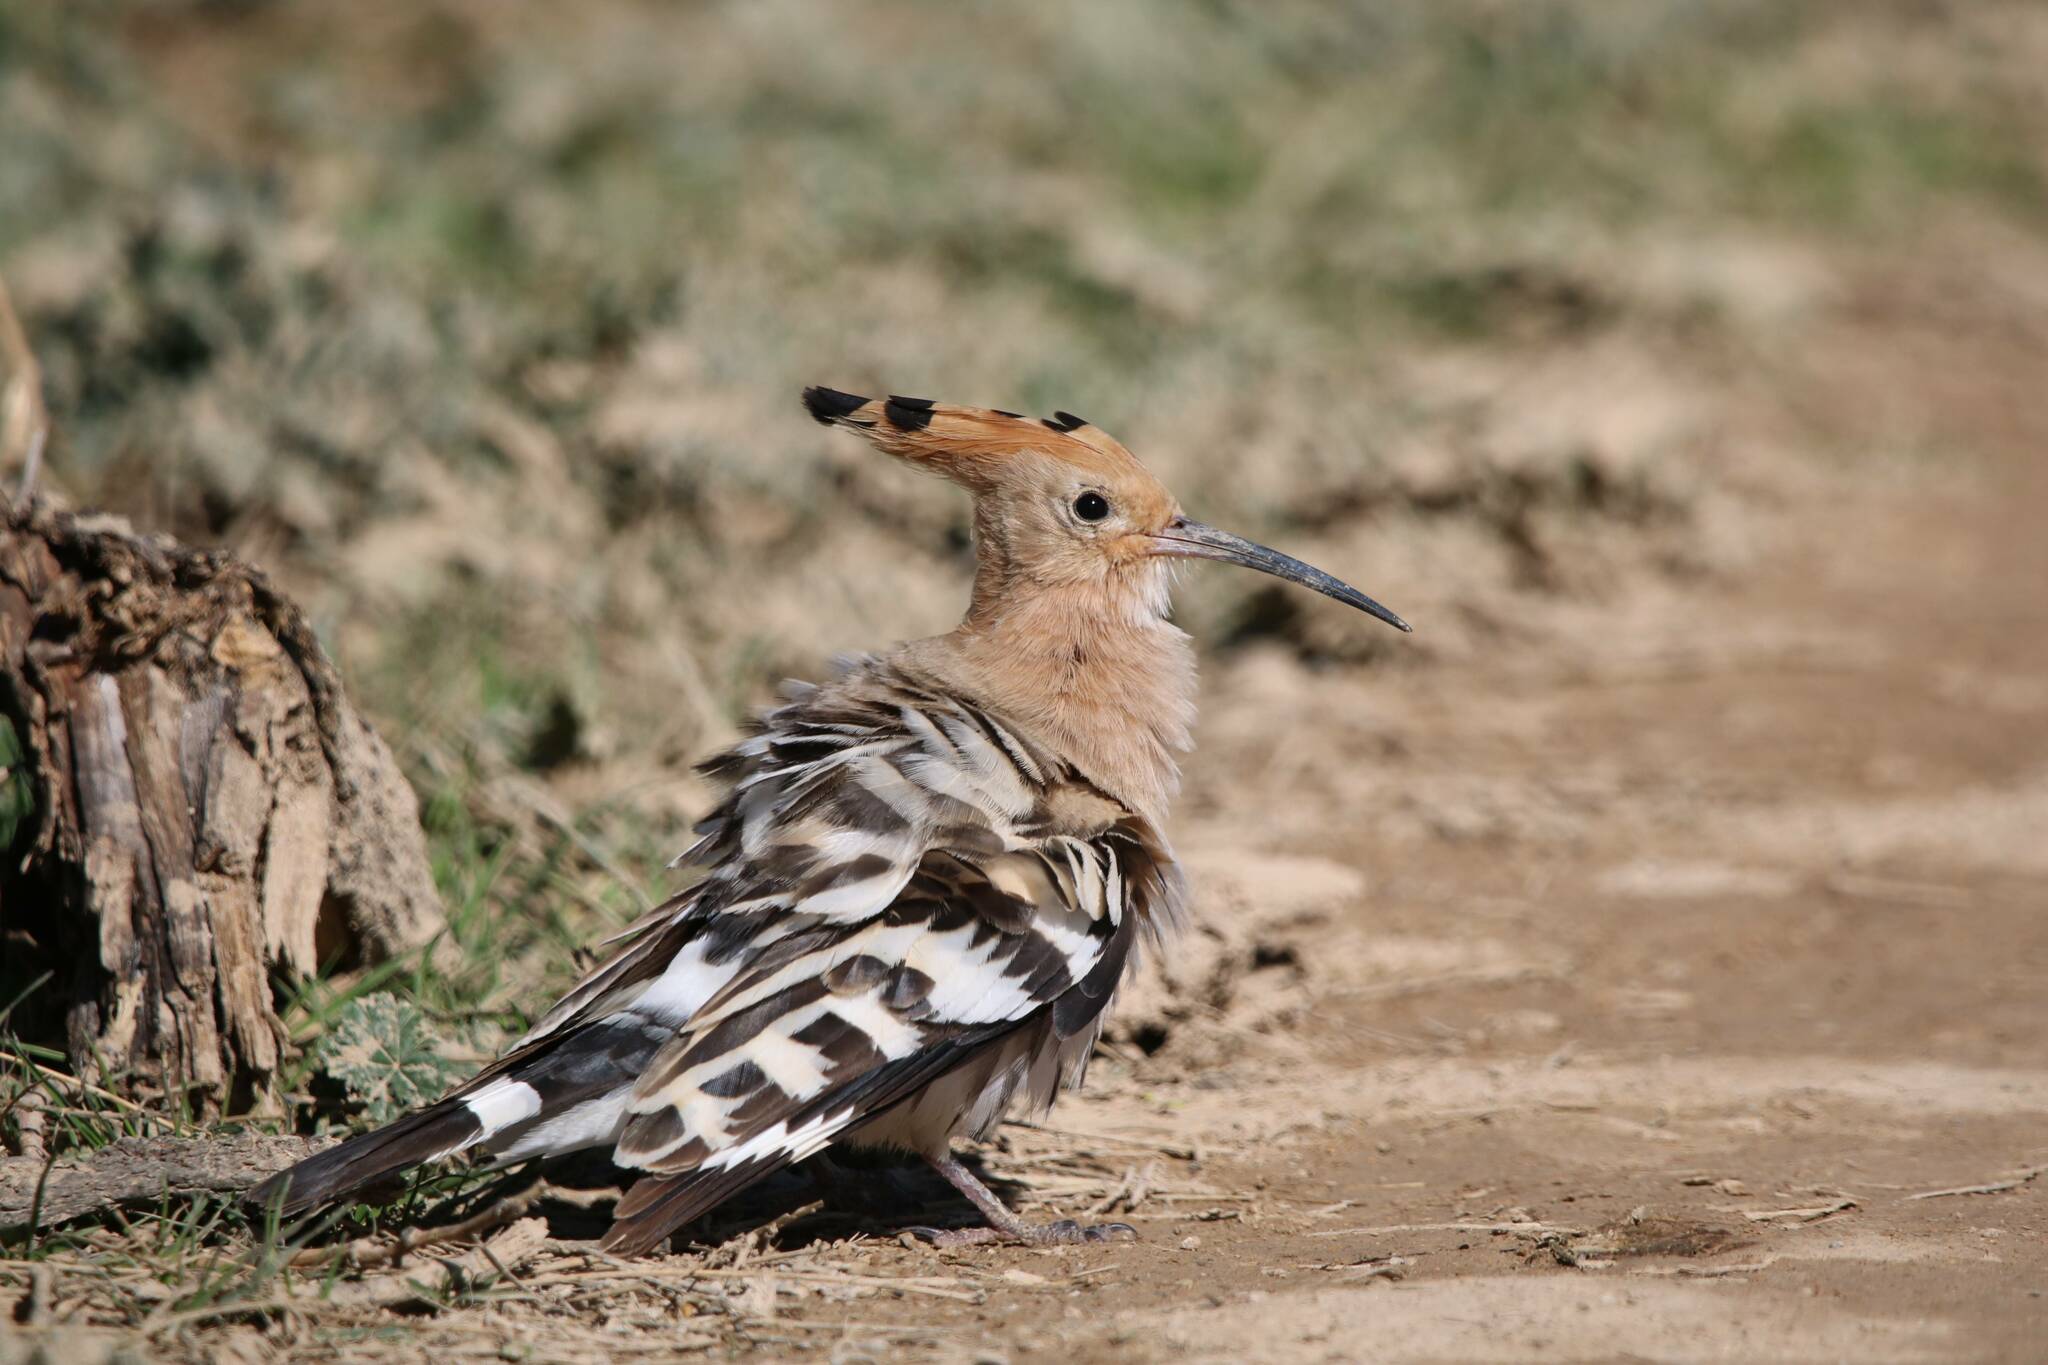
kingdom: Animalia
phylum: Chordata
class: Aves
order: Bucerotiformes
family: Upupidae
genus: Upupa
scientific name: Upupa epops
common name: Eurasian hoopoe
